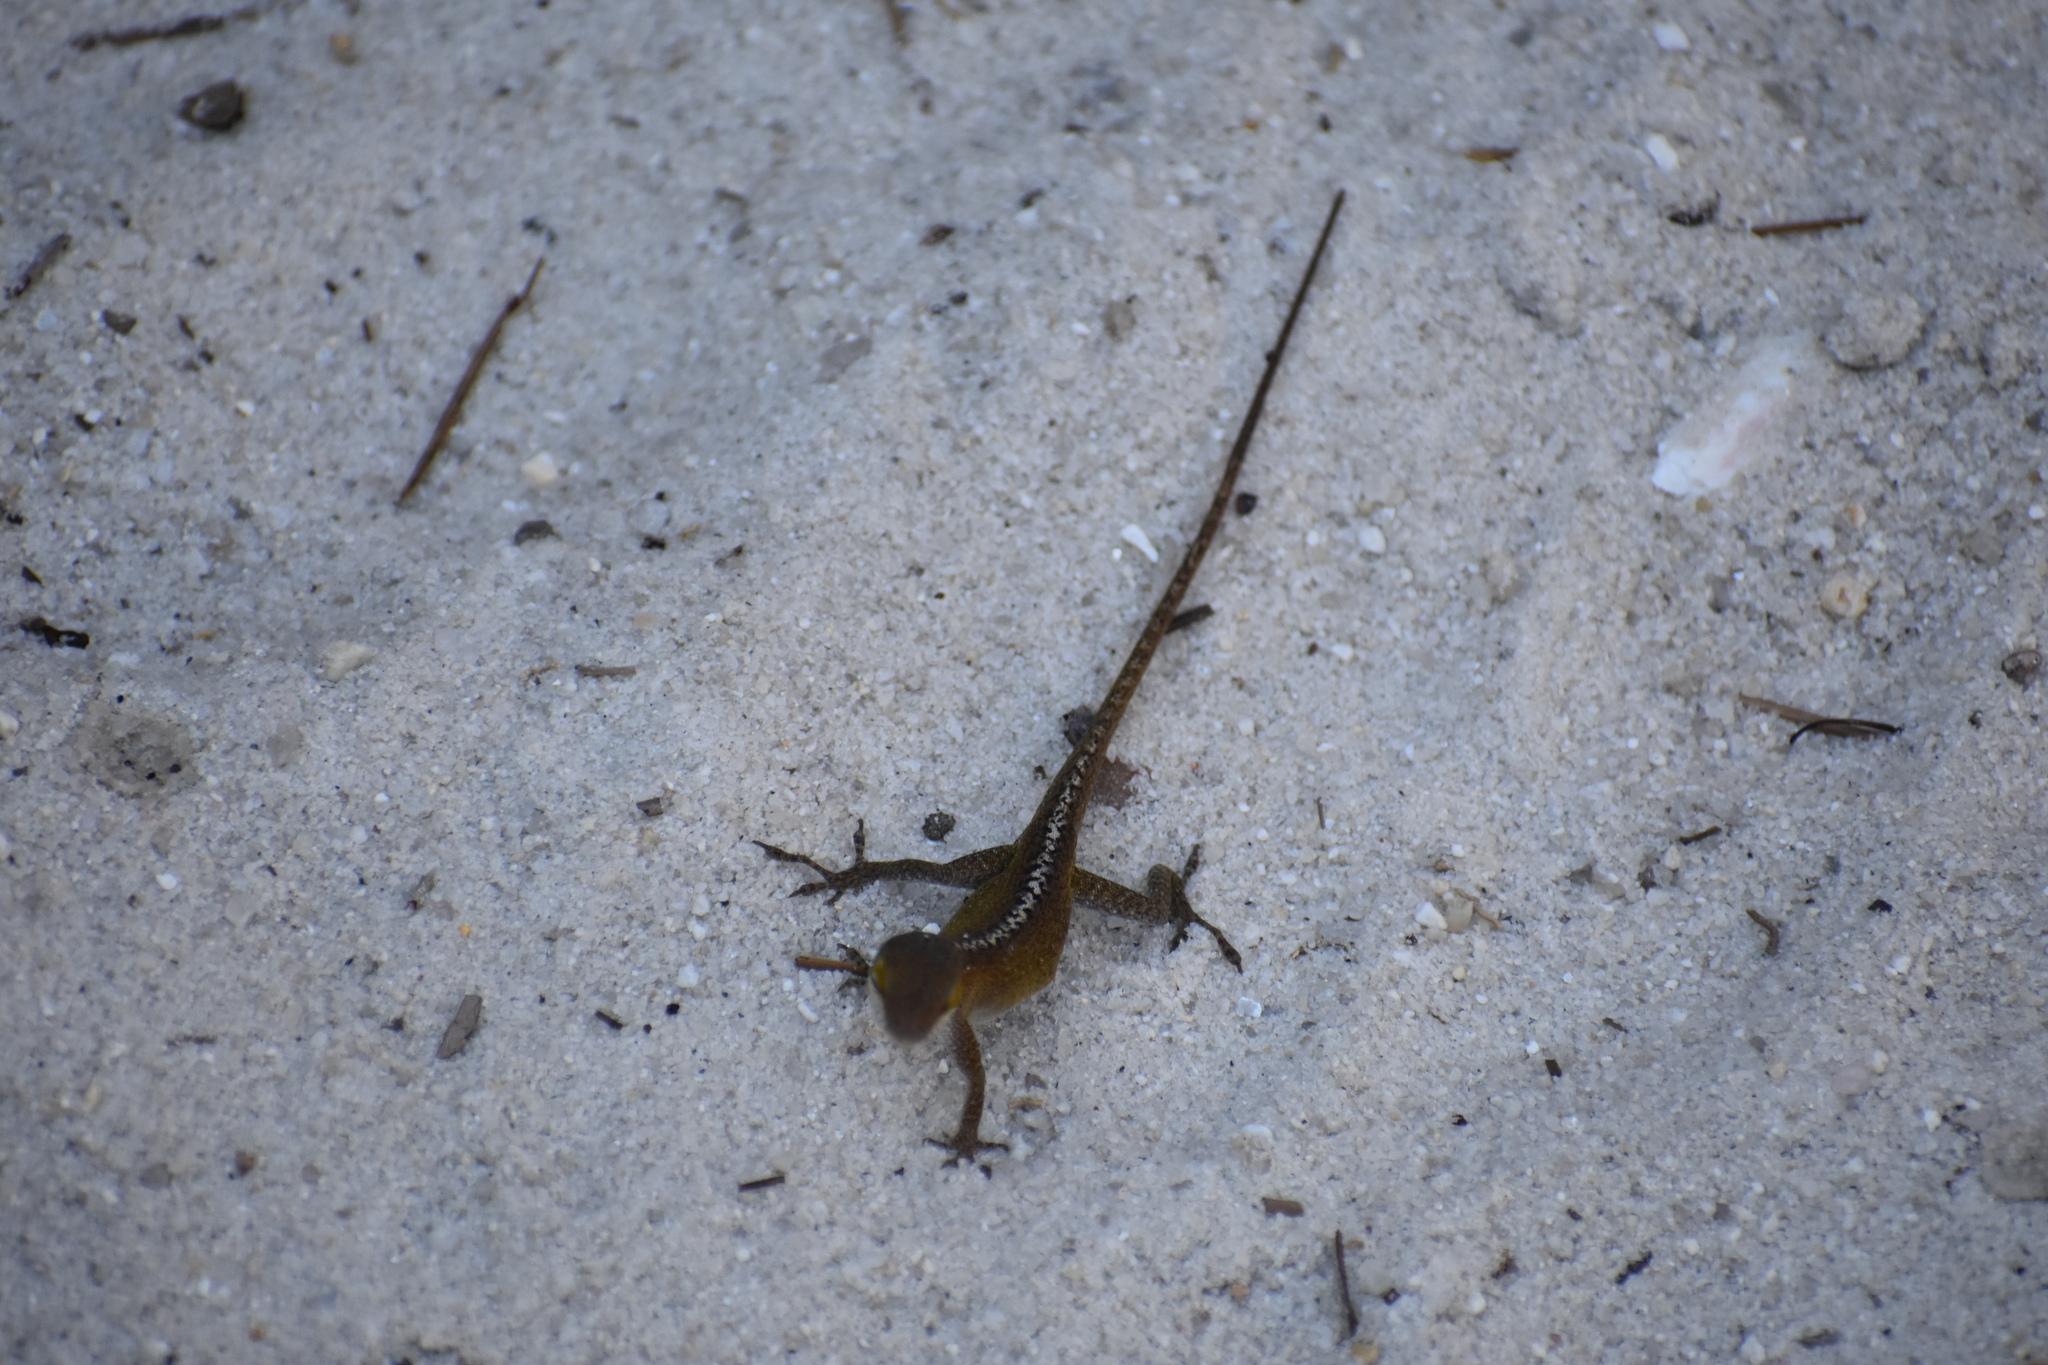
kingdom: Animalia
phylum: Chordata
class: Squamata
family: Dactyloidae
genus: Anolis
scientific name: Anolis carolinensis
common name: Green anole
